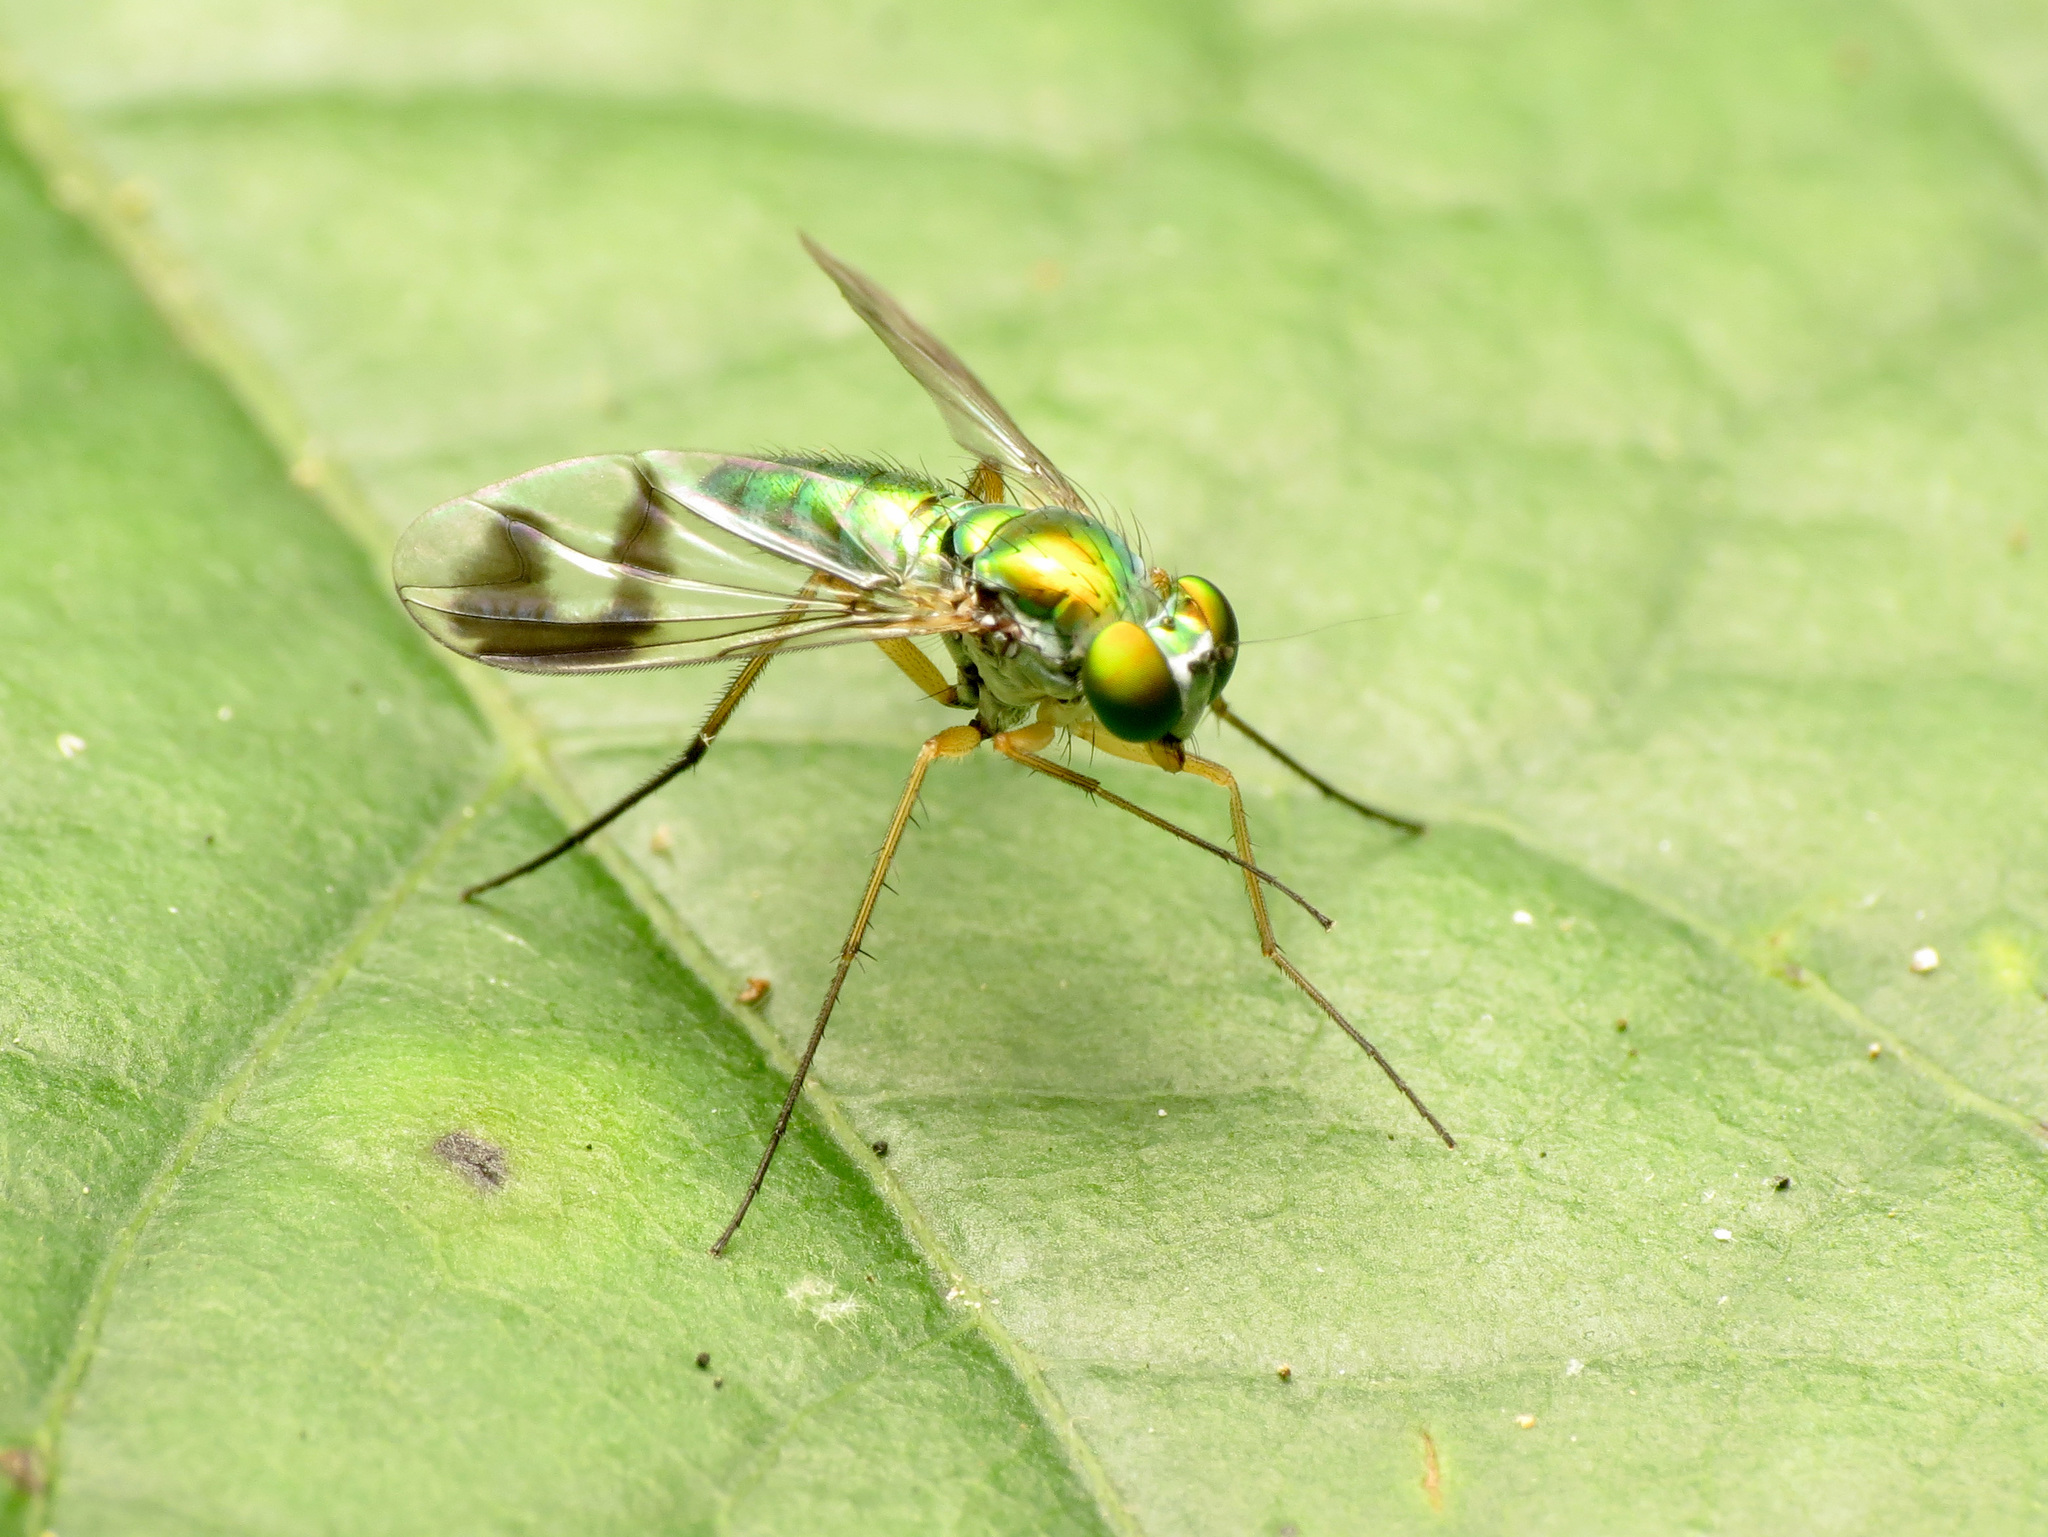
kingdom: Animalia
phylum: Arthropoda
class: Insecta
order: Diptera
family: Dolichopodidae
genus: Condylostylus
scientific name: Condylostylus
